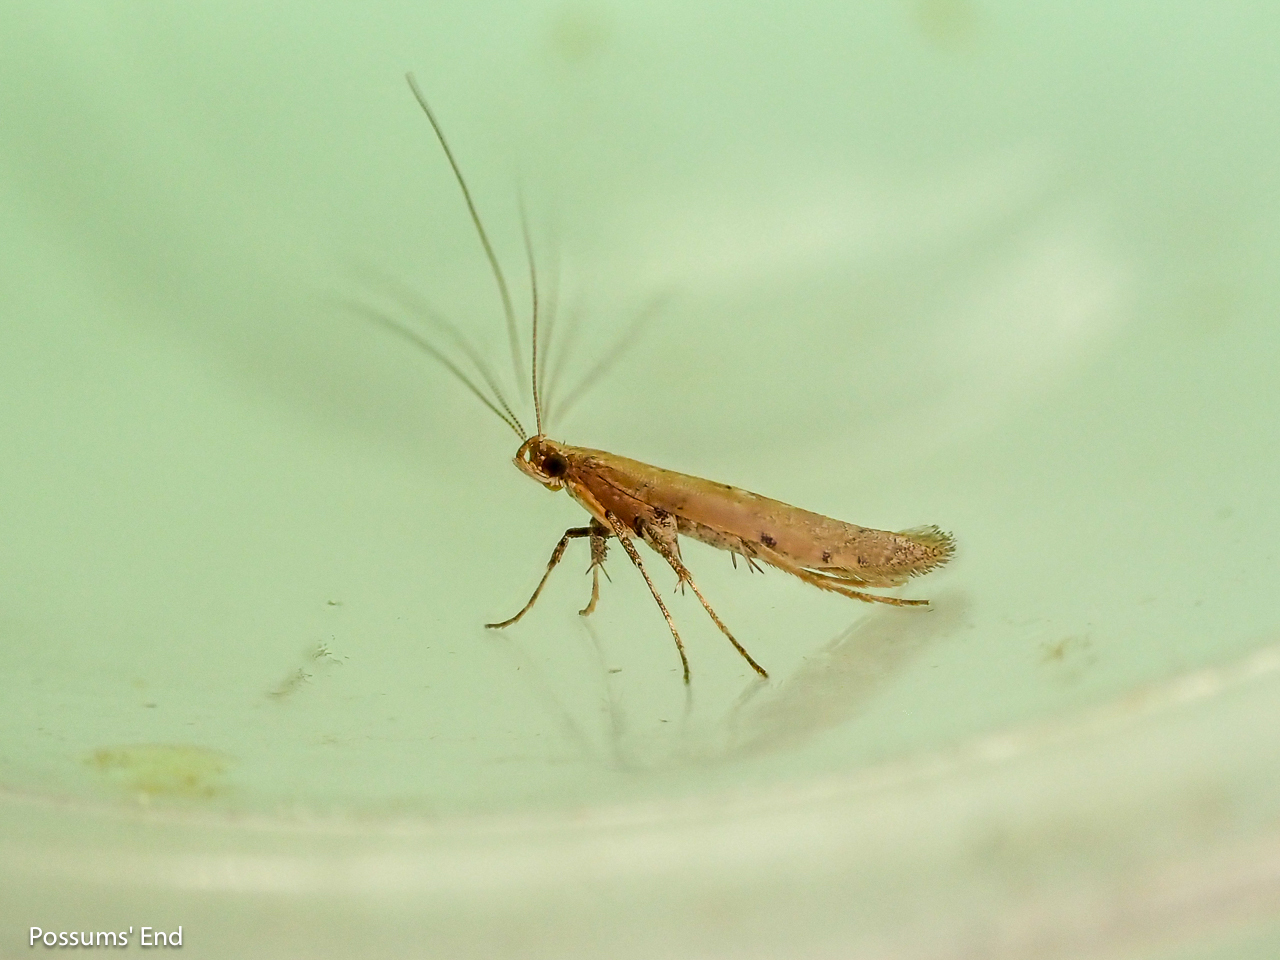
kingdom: Animalia
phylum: Arthropoda
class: Insecta
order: Lepidoptera
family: Gracillariidae
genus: Caloptilia
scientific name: Caloptilia linearis
